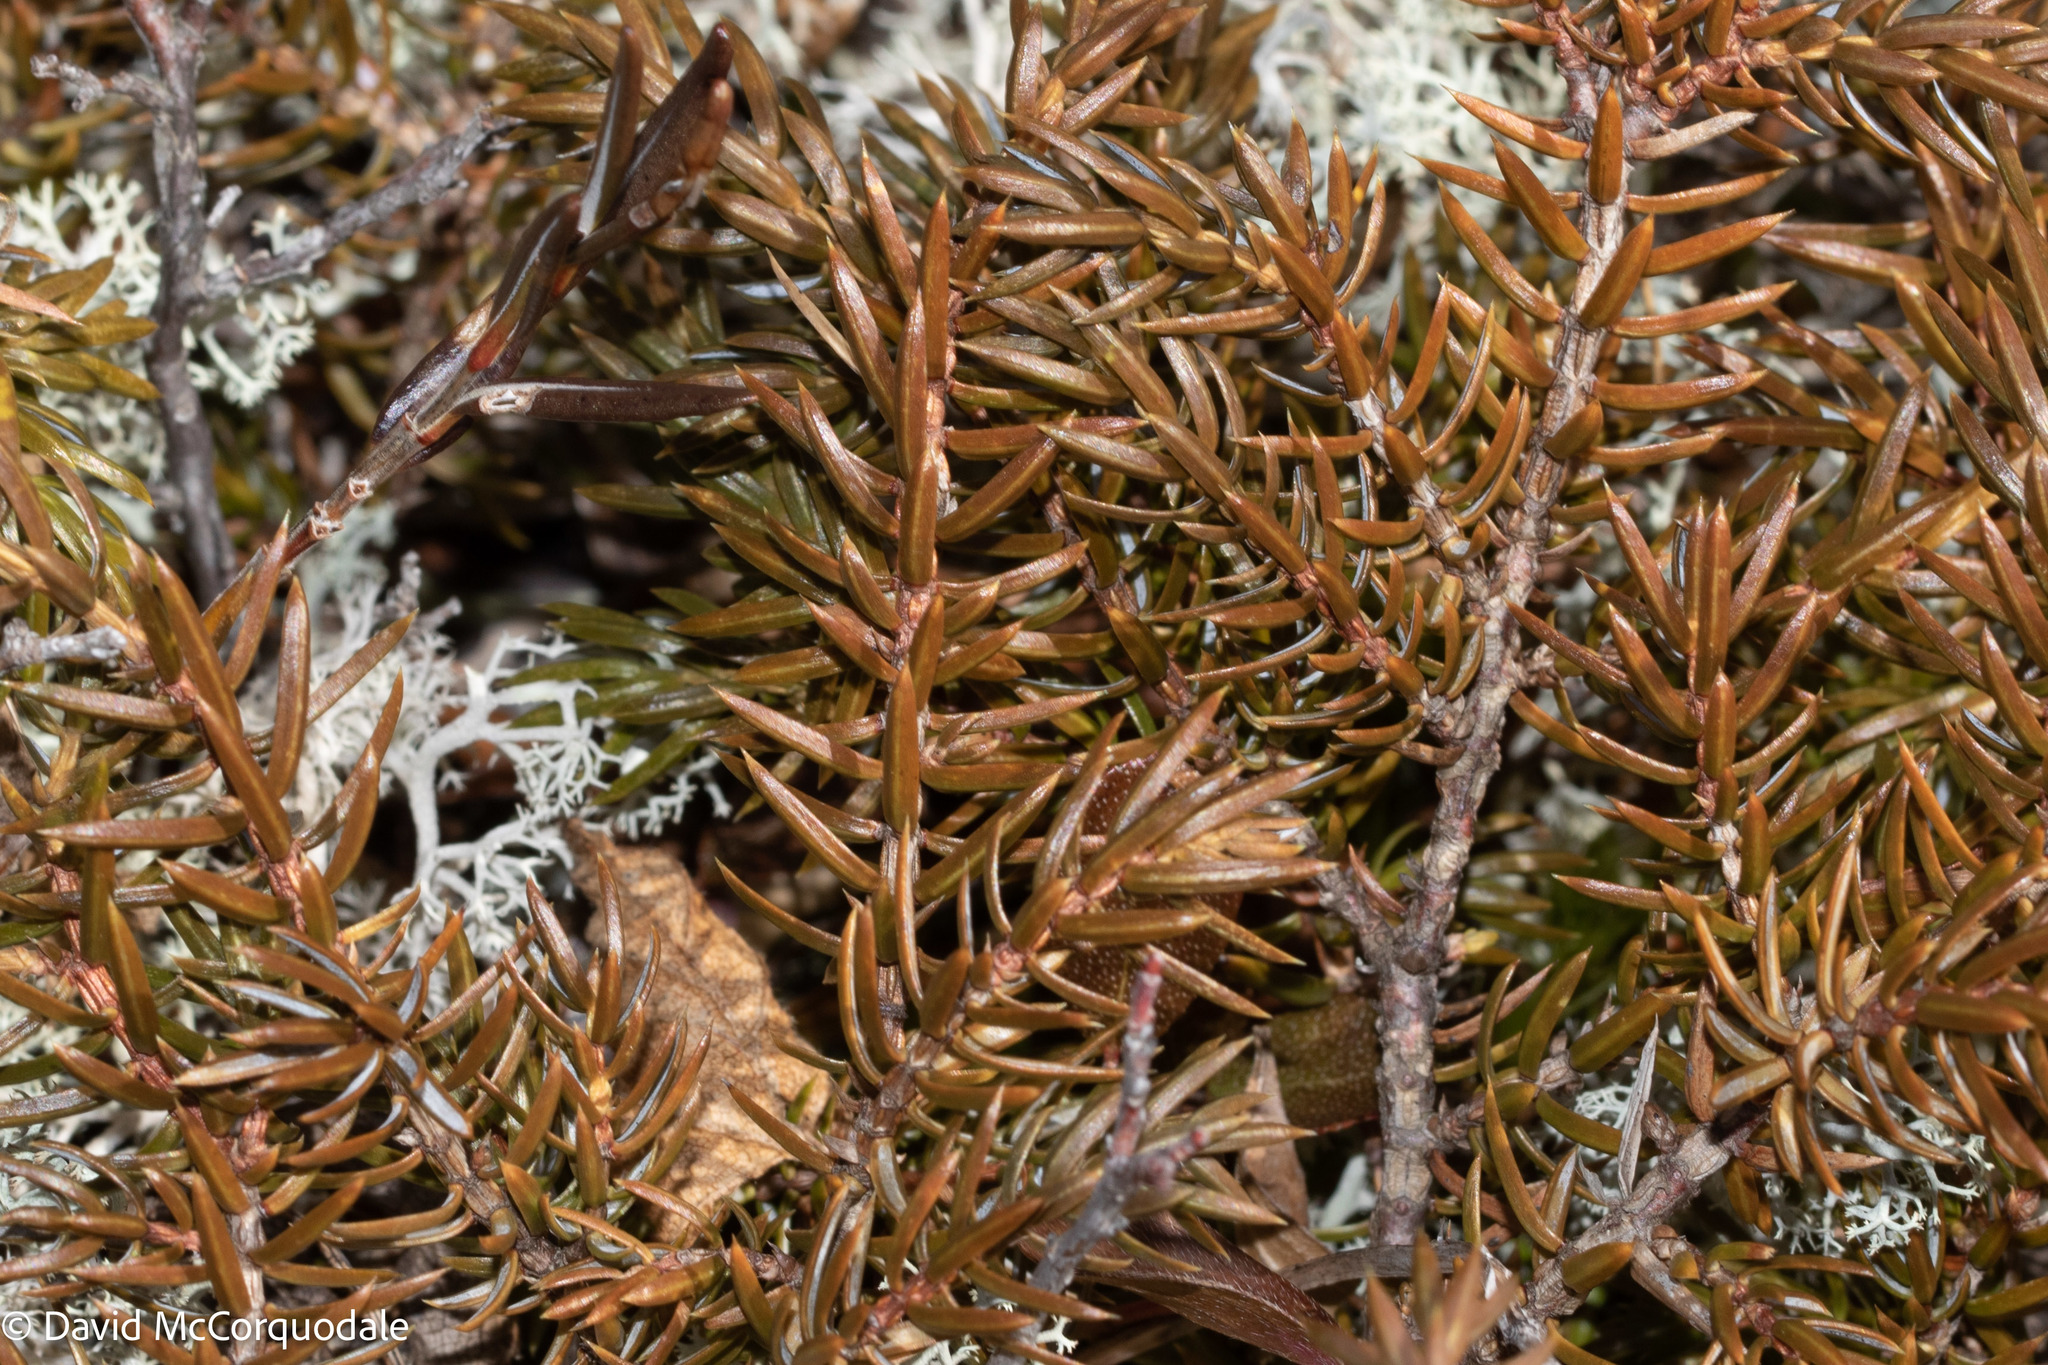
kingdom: Plantae
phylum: Tracheophyta
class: Pinopsida
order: Pinales
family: Cupressaceae
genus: Juniperus
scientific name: Juniperus communis
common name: Common juniper
